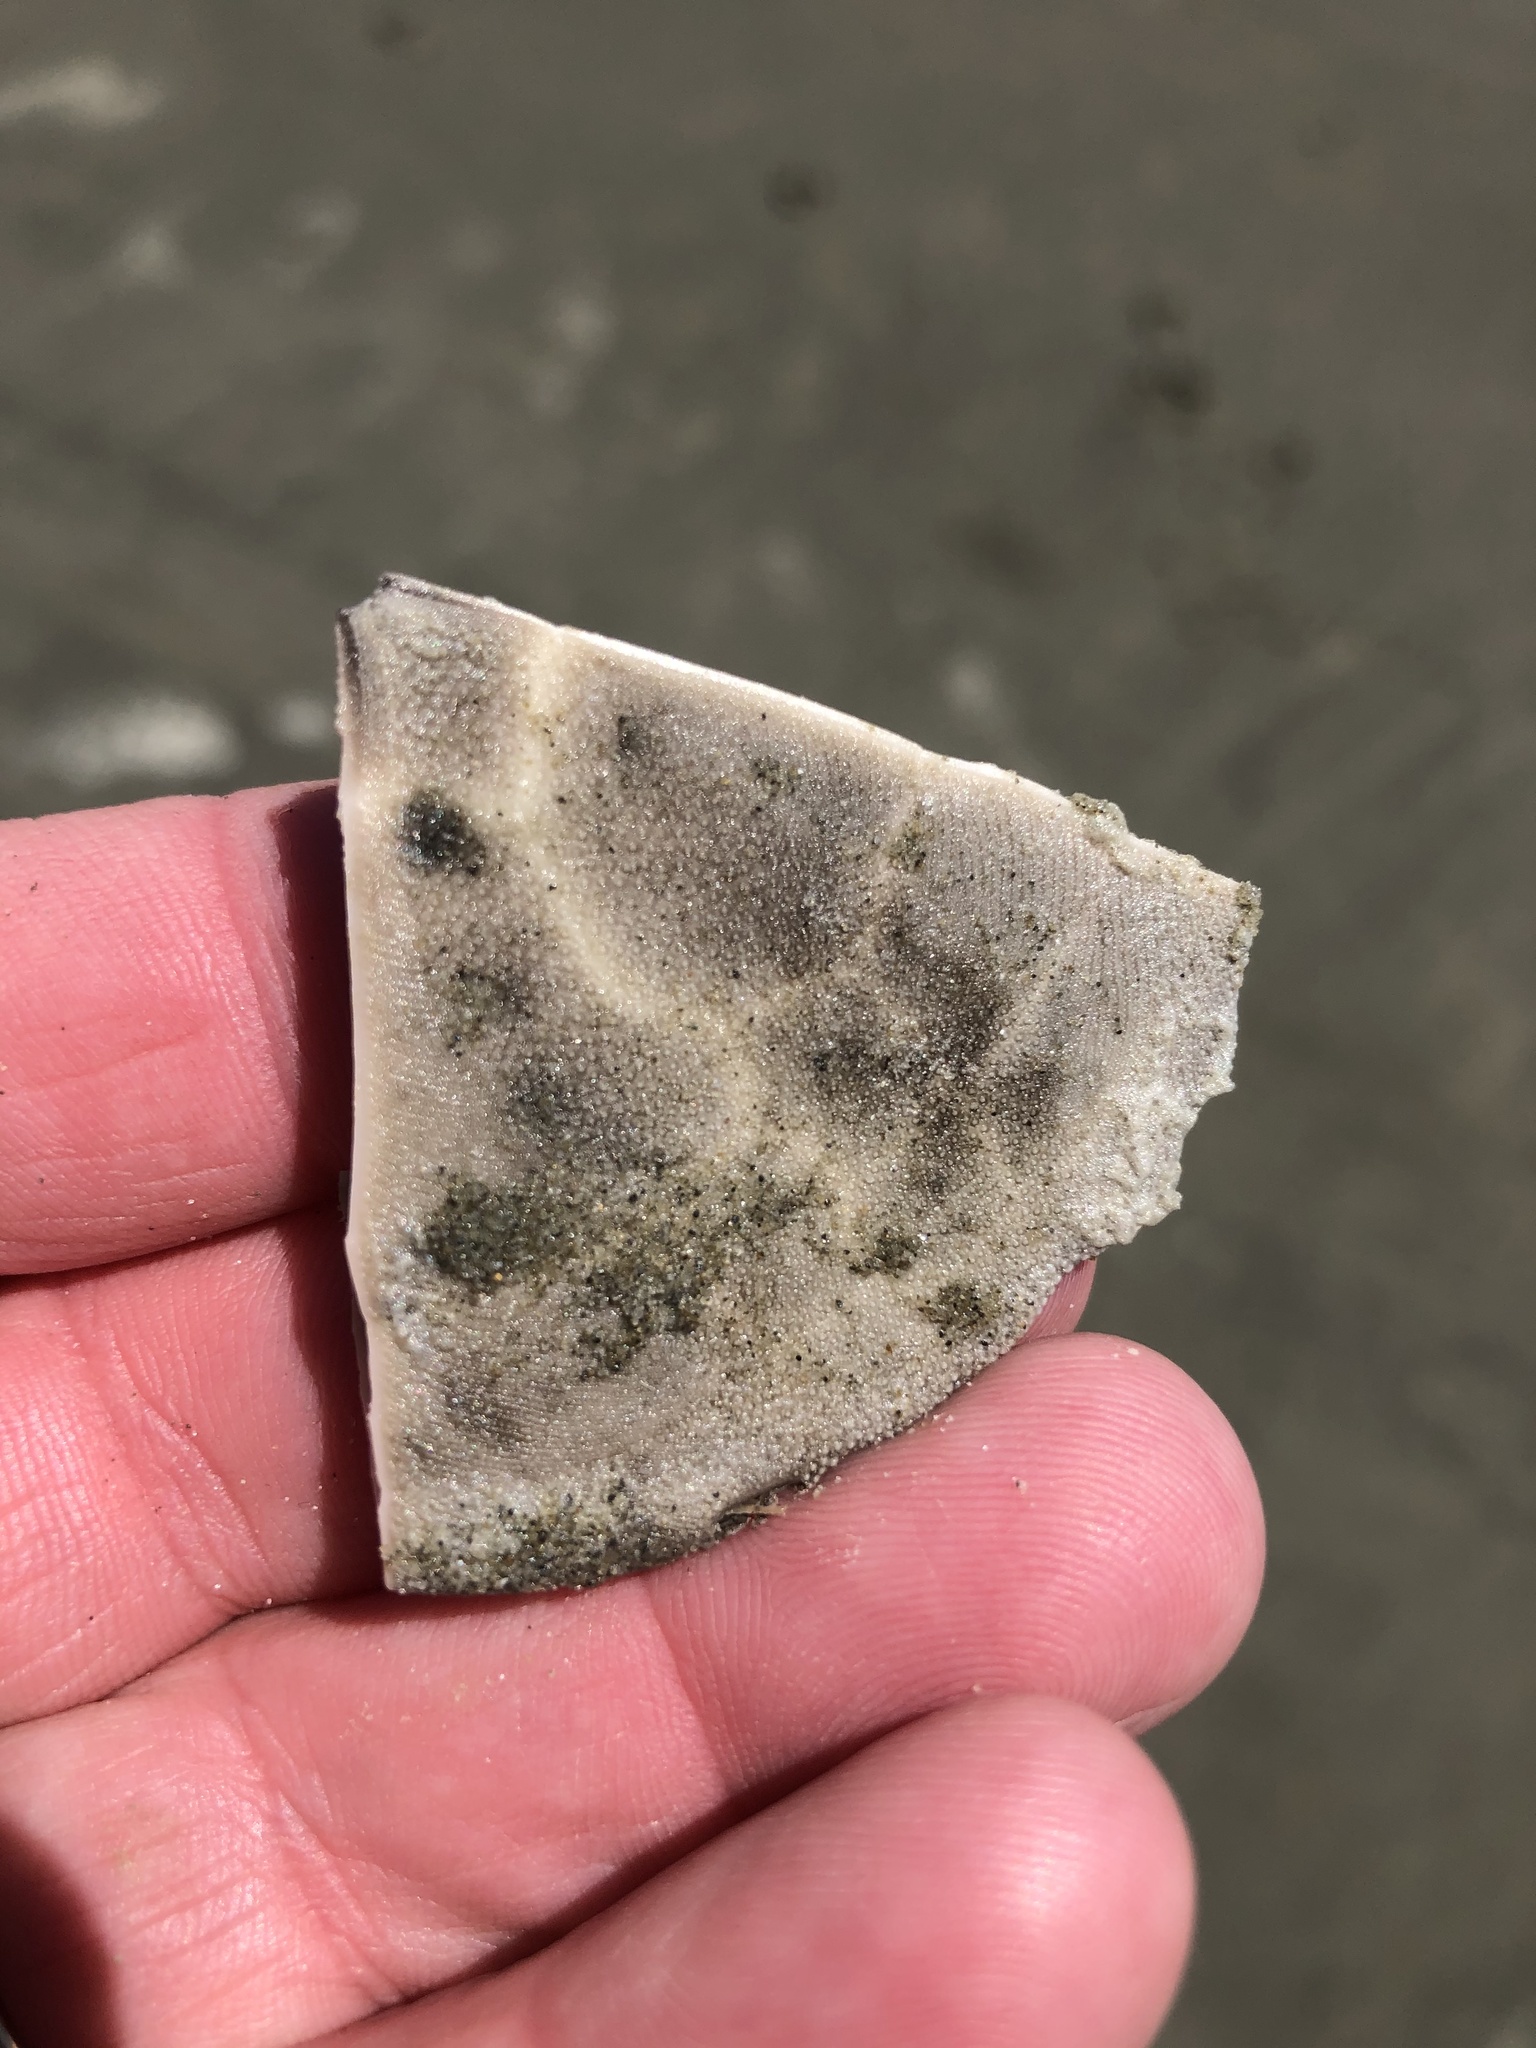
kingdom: Animalia
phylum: Echinodermata
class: Echinoidea
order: Clypeasteroida
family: Clypeasteridae
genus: Fellaster
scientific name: Fellaster zelandiae
